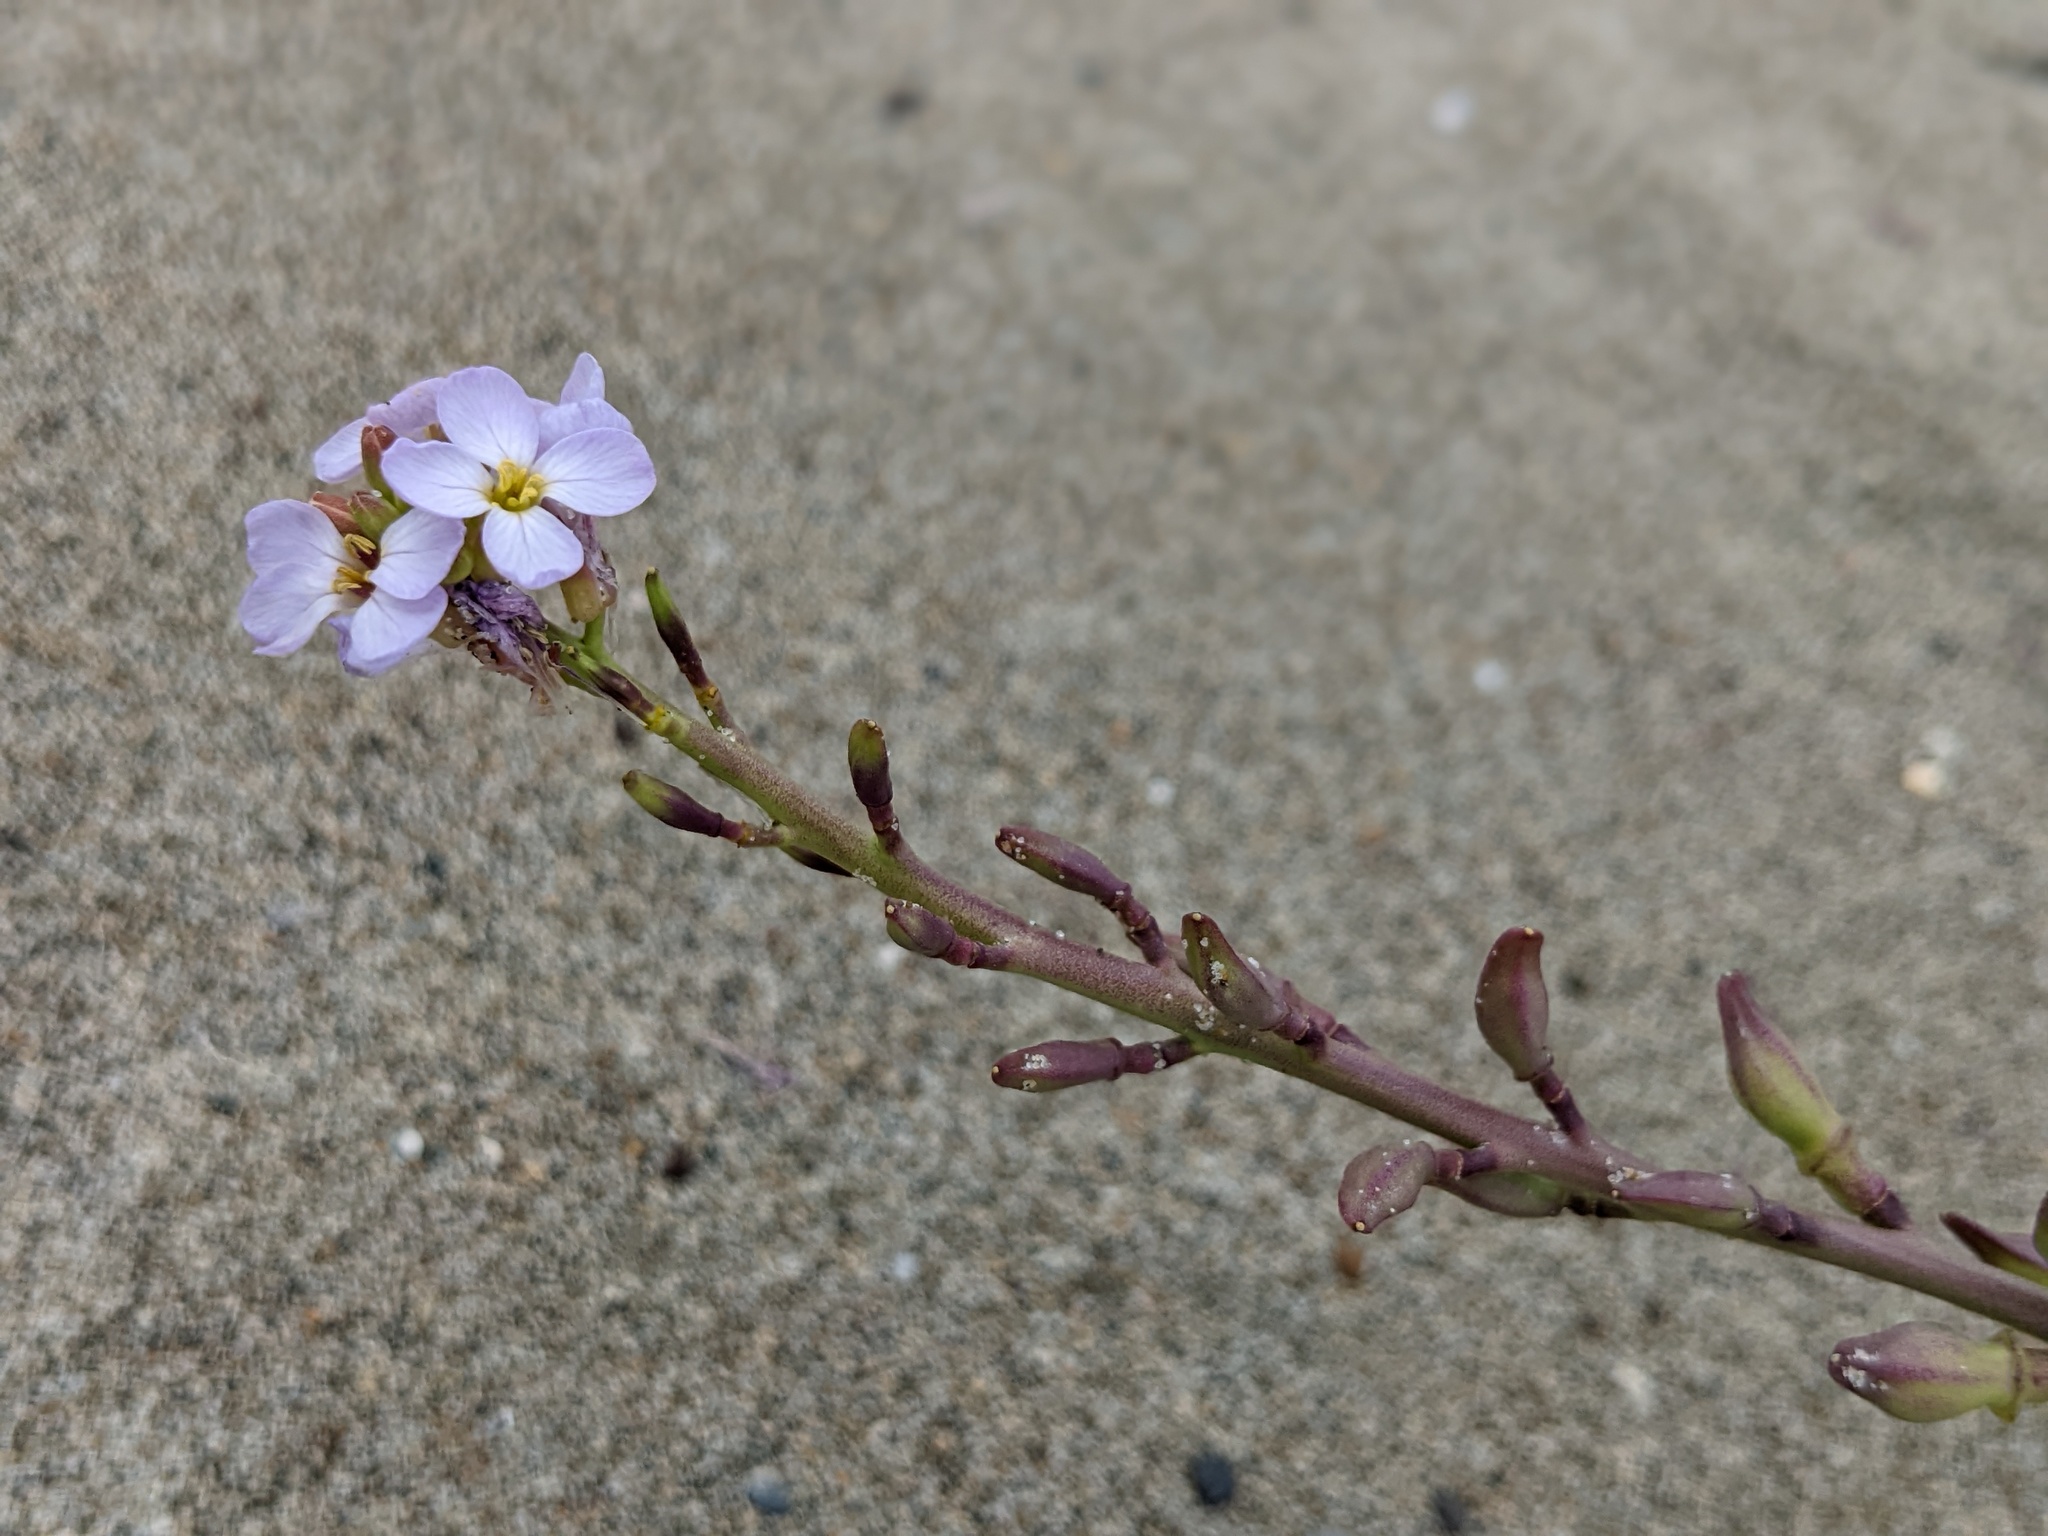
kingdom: Plantae
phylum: Tracheophyta
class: Magnoliopsida
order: Brassicales
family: Brassicaceae
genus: Cakile
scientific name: Cakile maritima
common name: Sea rocket
